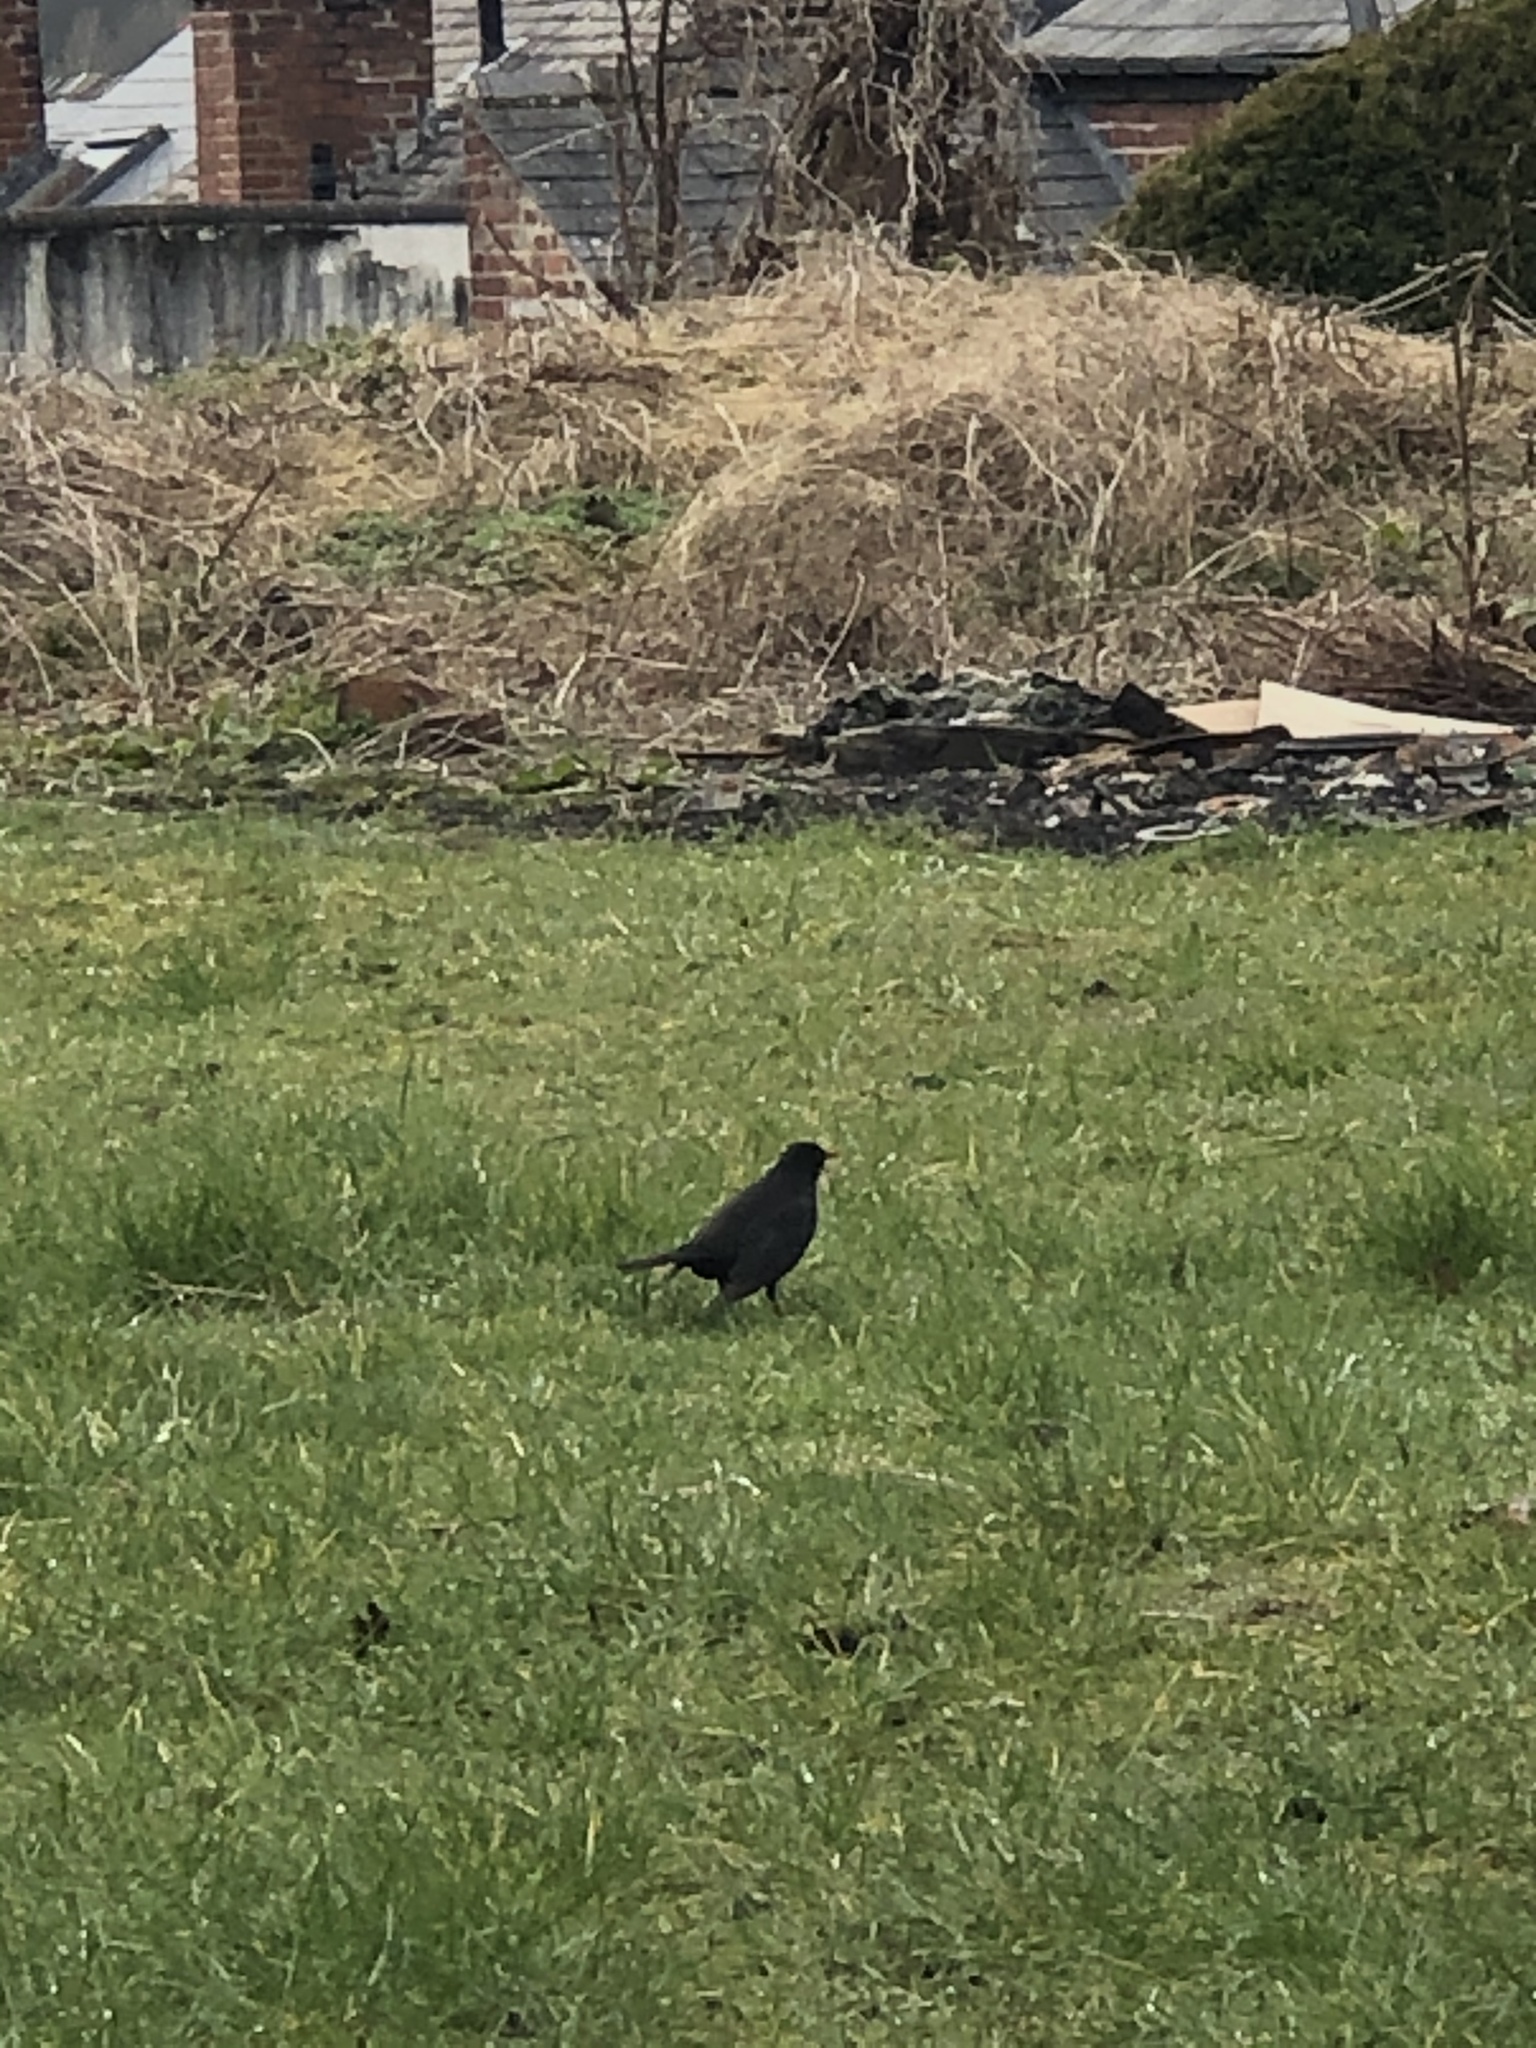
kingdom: Animalia
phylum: Chordata
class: Aves
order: Passeriformes
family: Turdidae
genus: Turdus
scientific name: Turdus merula
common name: Common blackbird
